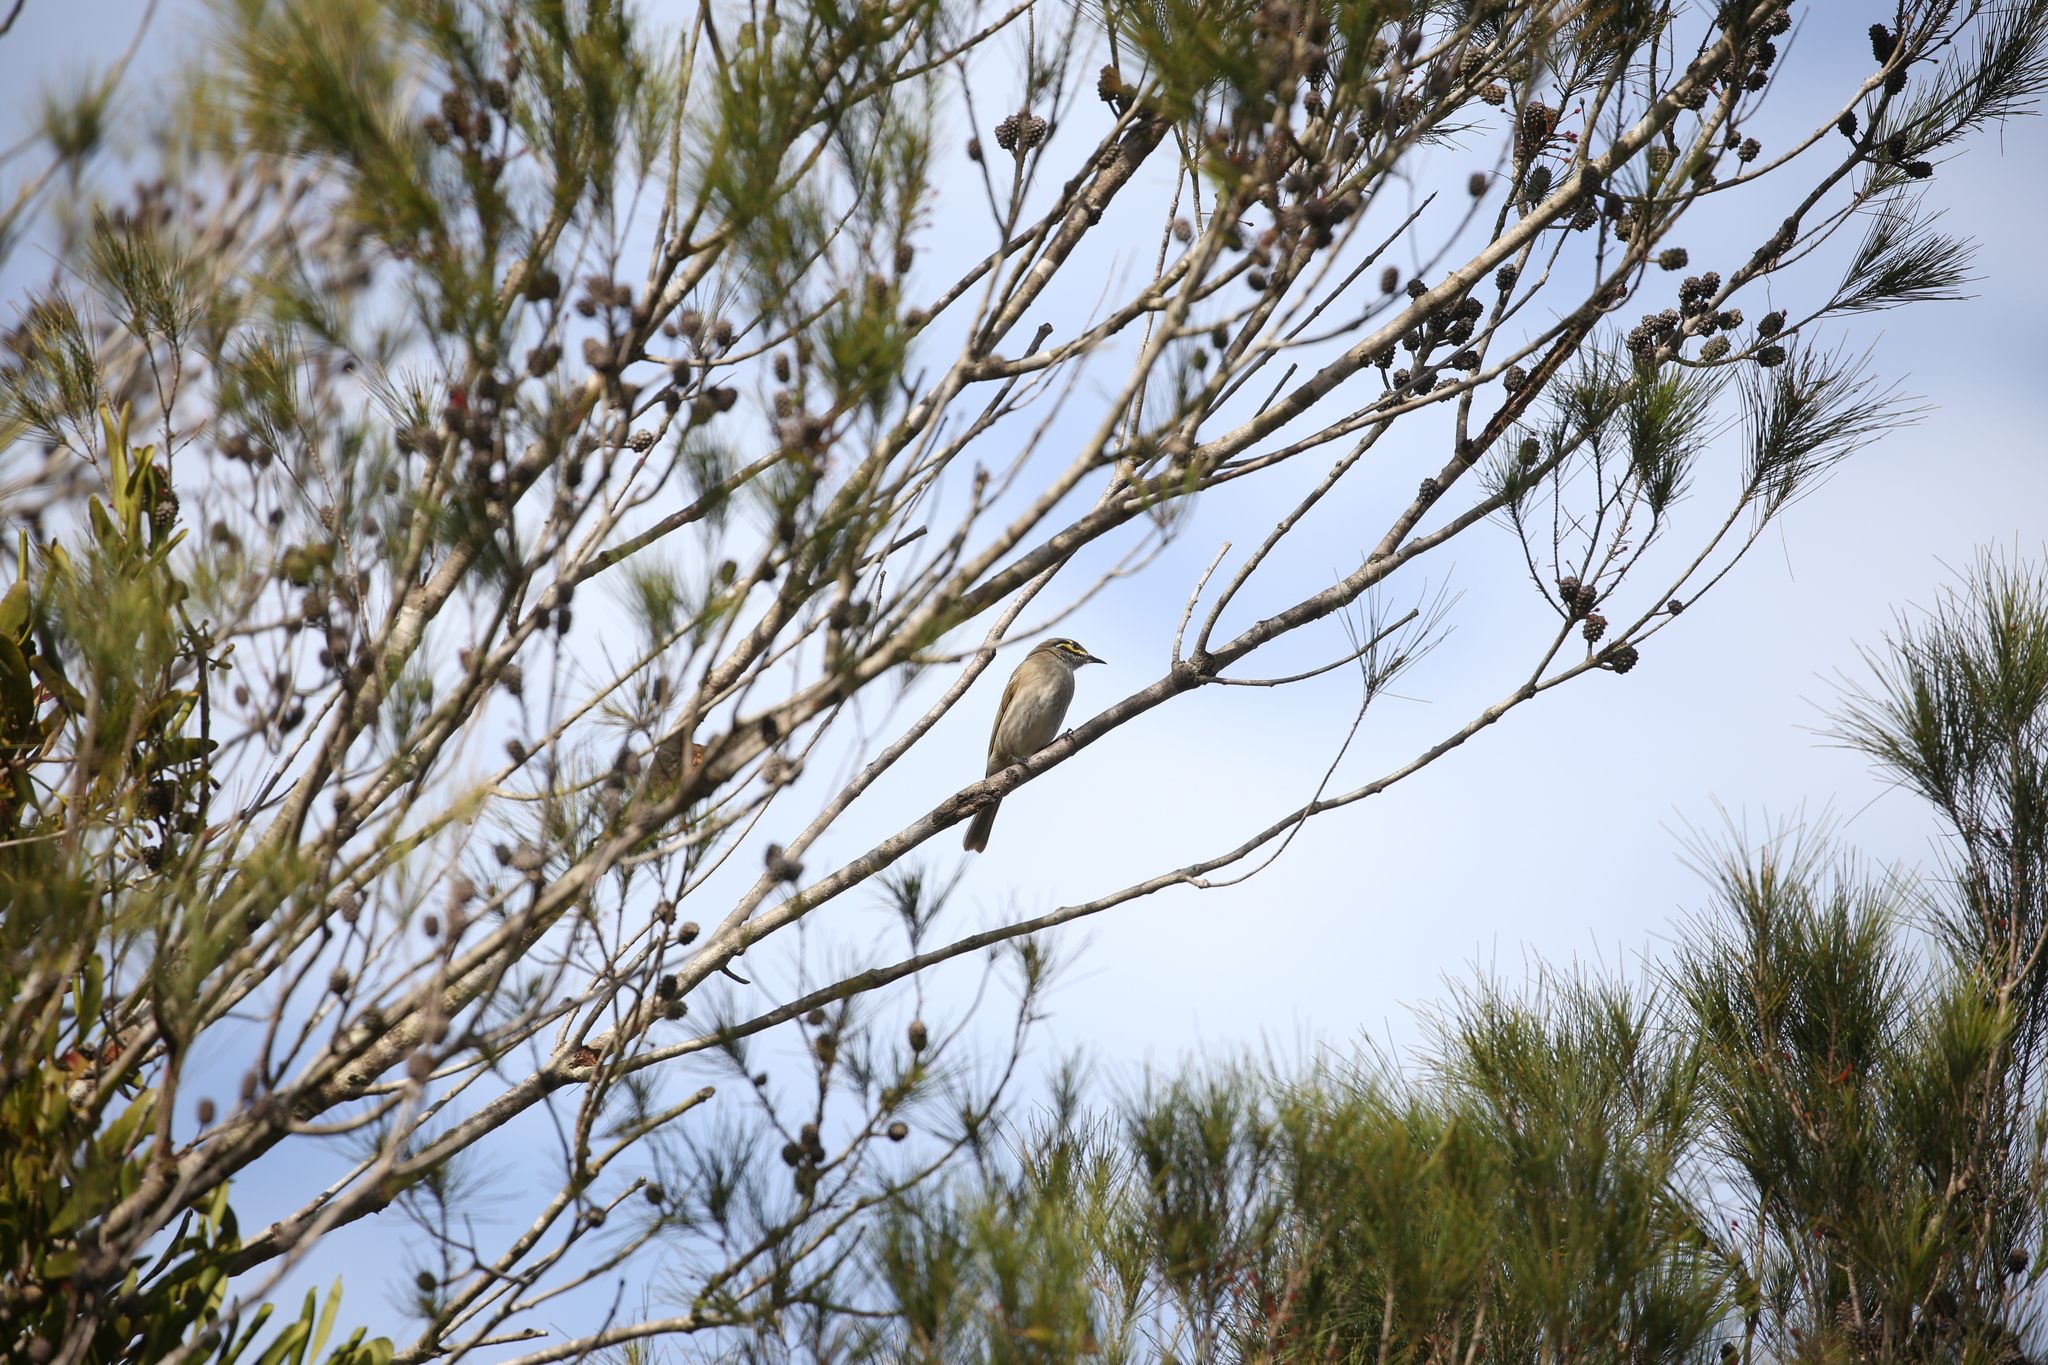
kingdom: Animalia
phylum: Chordata
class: Aves
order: Passeriformes
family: Meliphagidae
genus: Caligavis
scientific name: Caligavis chrysops
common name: Yellow-faced honeyeater
